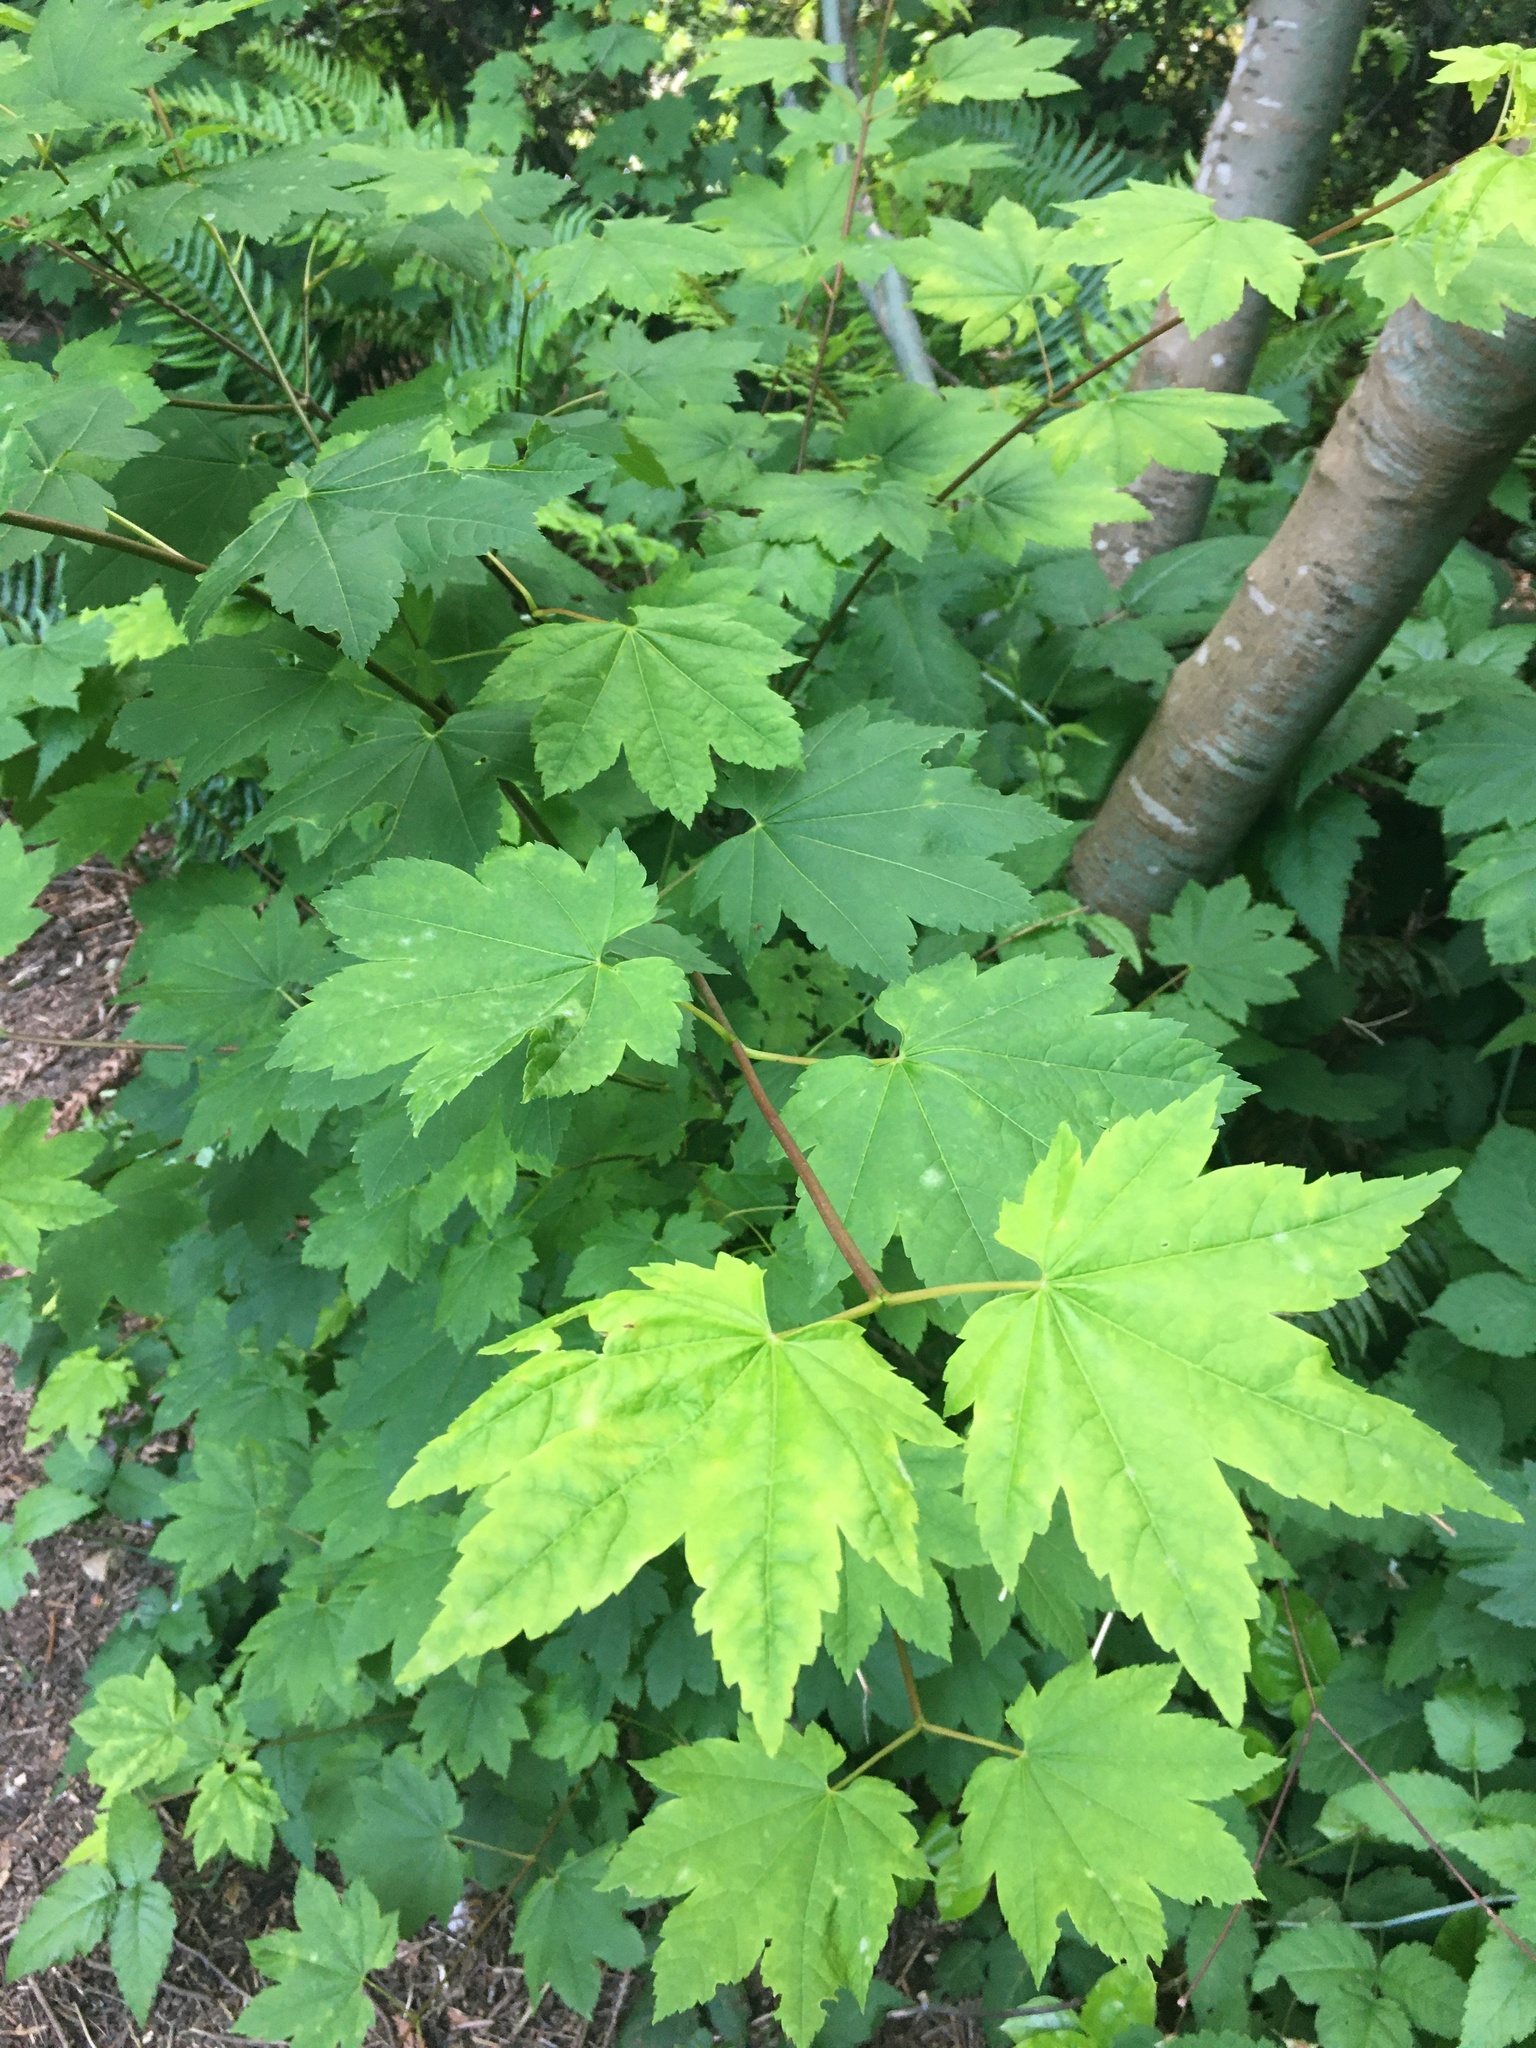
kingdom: Plantae
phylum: Tracheophyta
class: Magnoliopsida
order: Sapindales
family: Sapindaceae
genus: Acer
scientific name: Acer circinatum
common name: Vine maple
